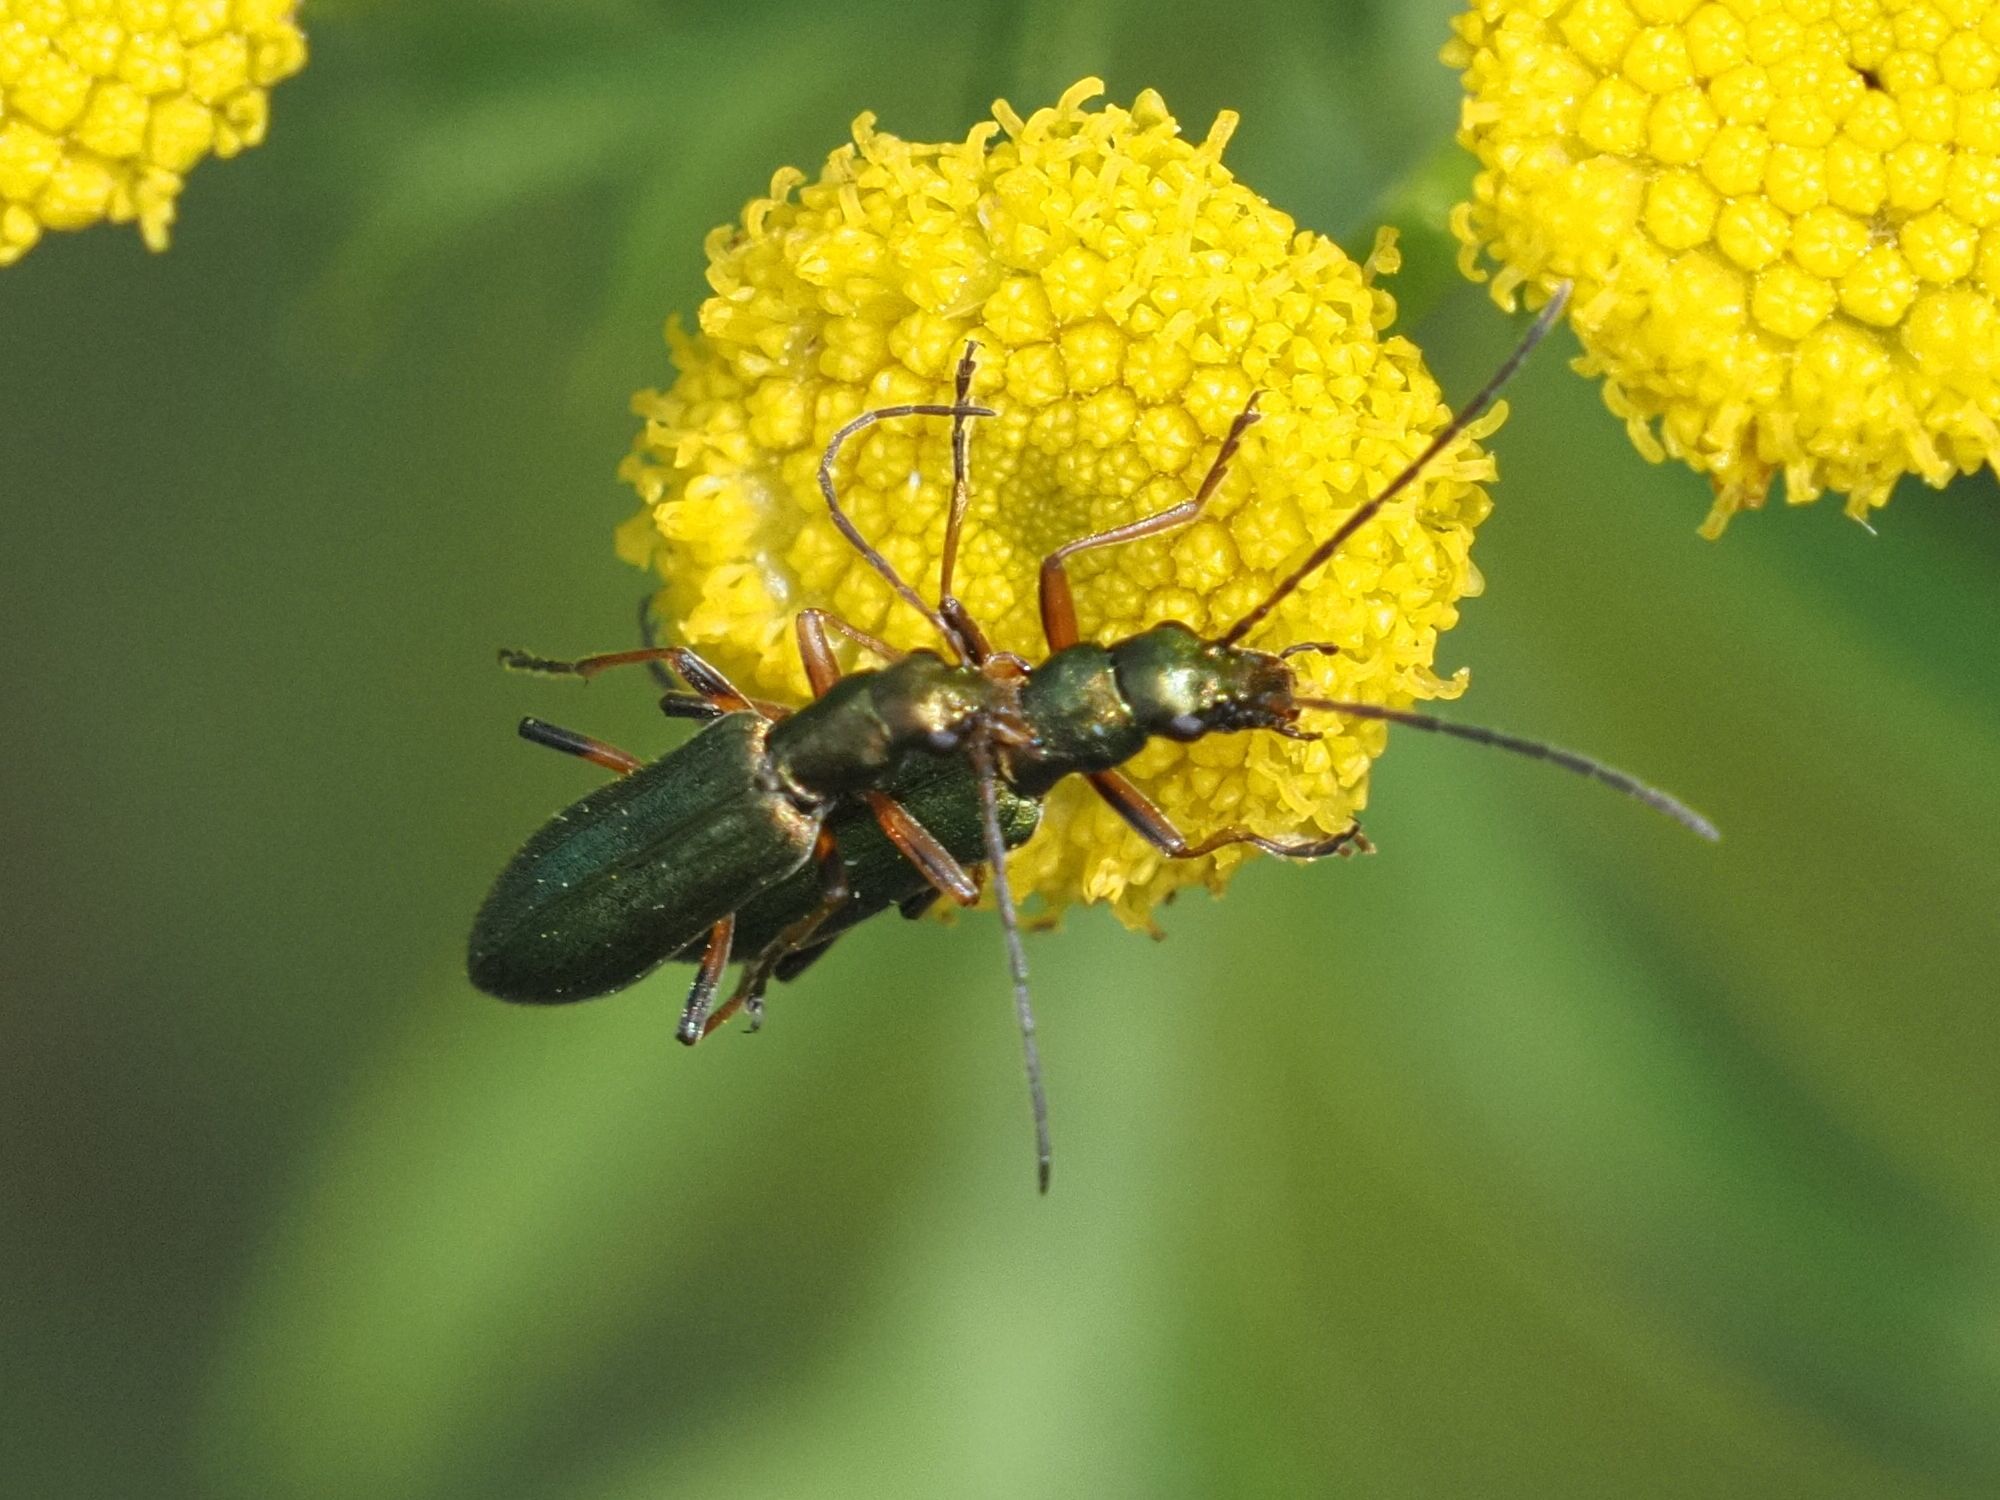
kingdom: Animalia
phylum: Arthropoda
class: Insecta
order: Coleoptera
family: Oedemeridae
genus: Chrysanthia
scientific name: Chrysanthia geniculata
